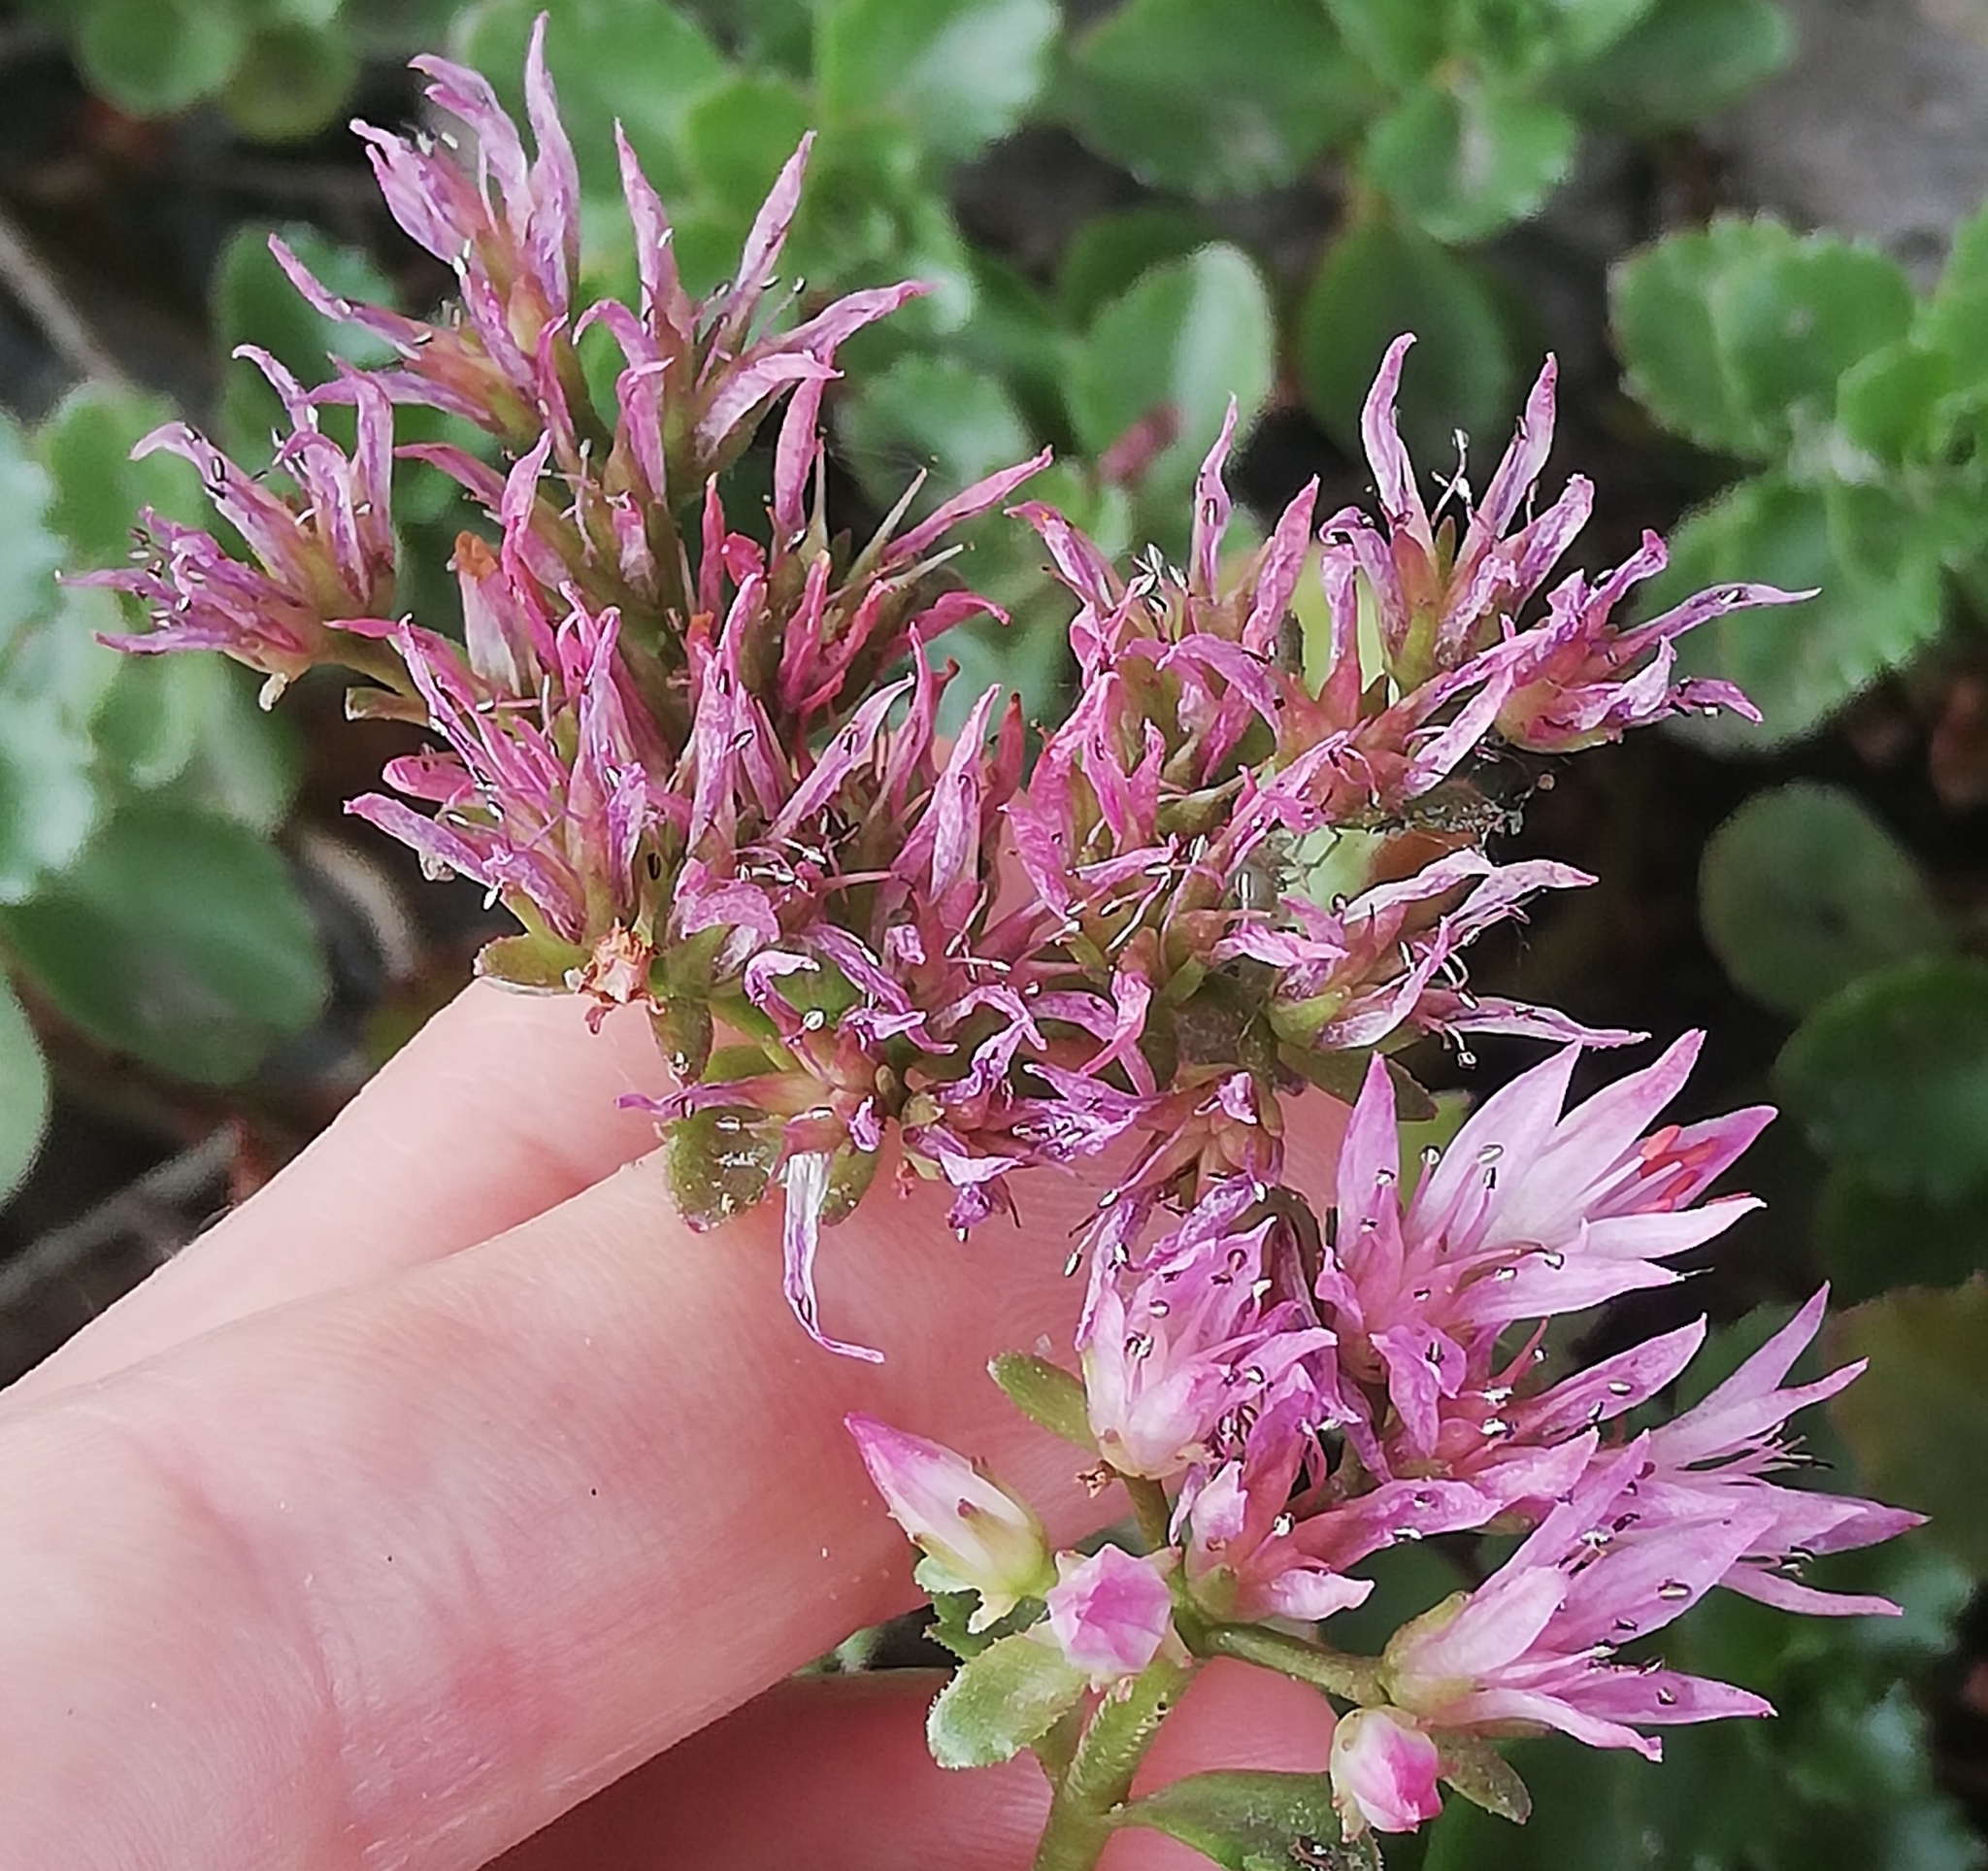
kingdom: Plantae
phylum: Tracheophyta
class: Magnoliopsida
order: Saxifragales
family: Crassulaceae
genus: Phedimus
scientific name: Phedimus spurius
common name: Caucasian stonecrop
